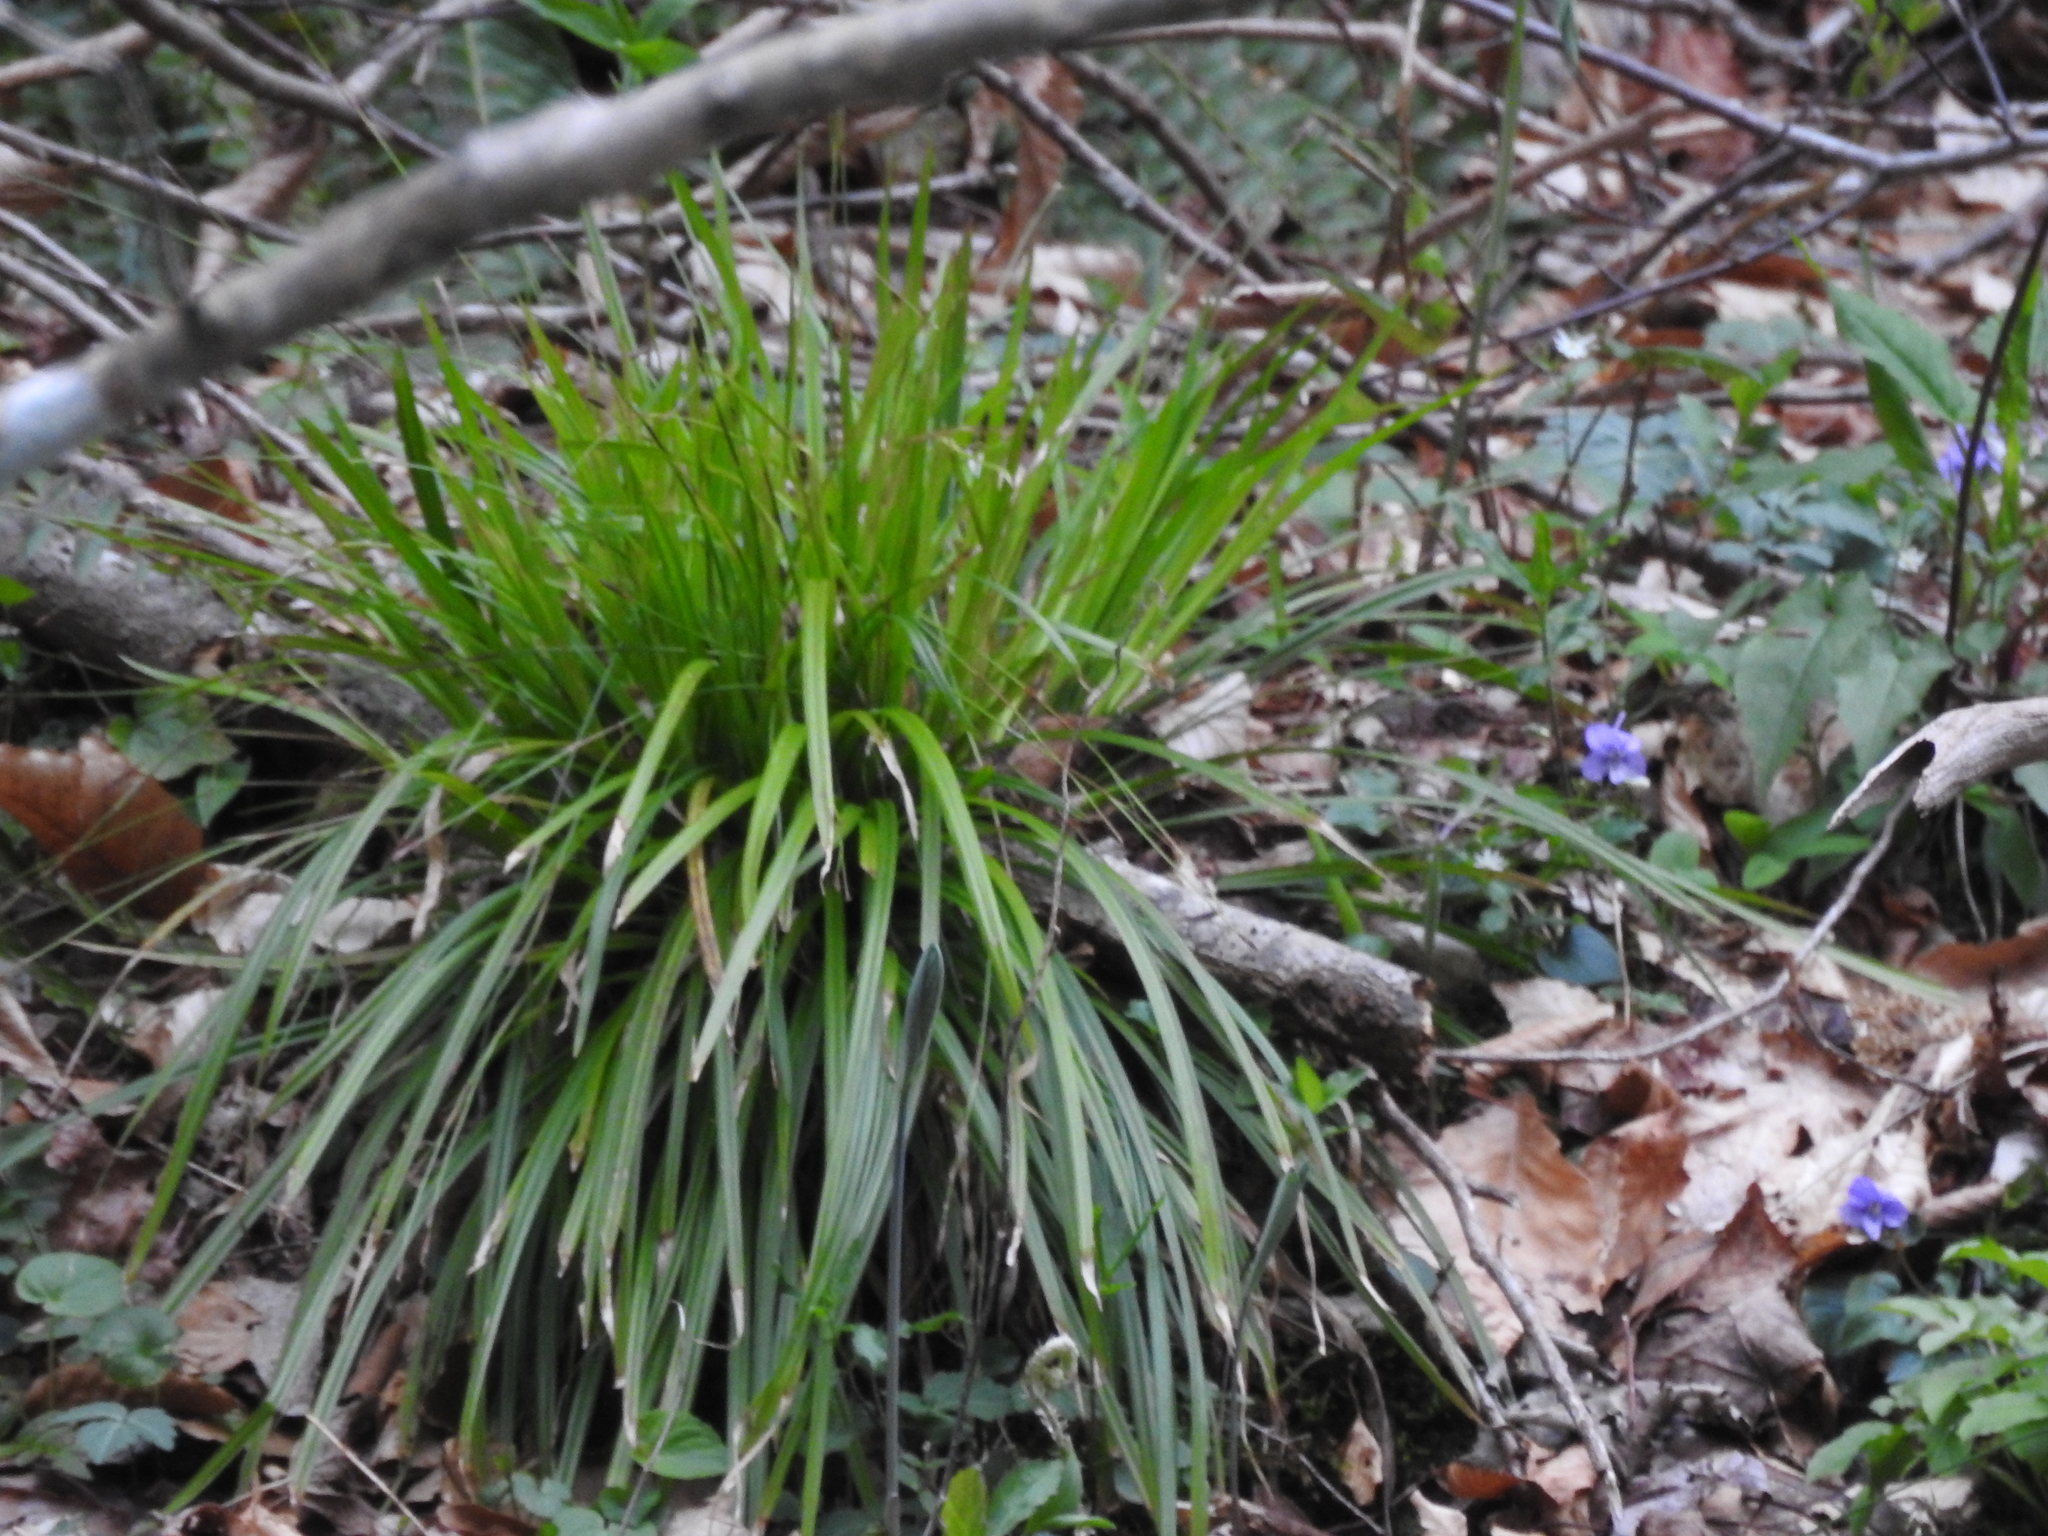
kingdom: Plantae
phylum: Tracheophyta
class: Liliopsida
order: Poales
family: Cyperaceae
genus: Carex
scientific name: Carex pedunculata
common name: Pedunculate sedge
